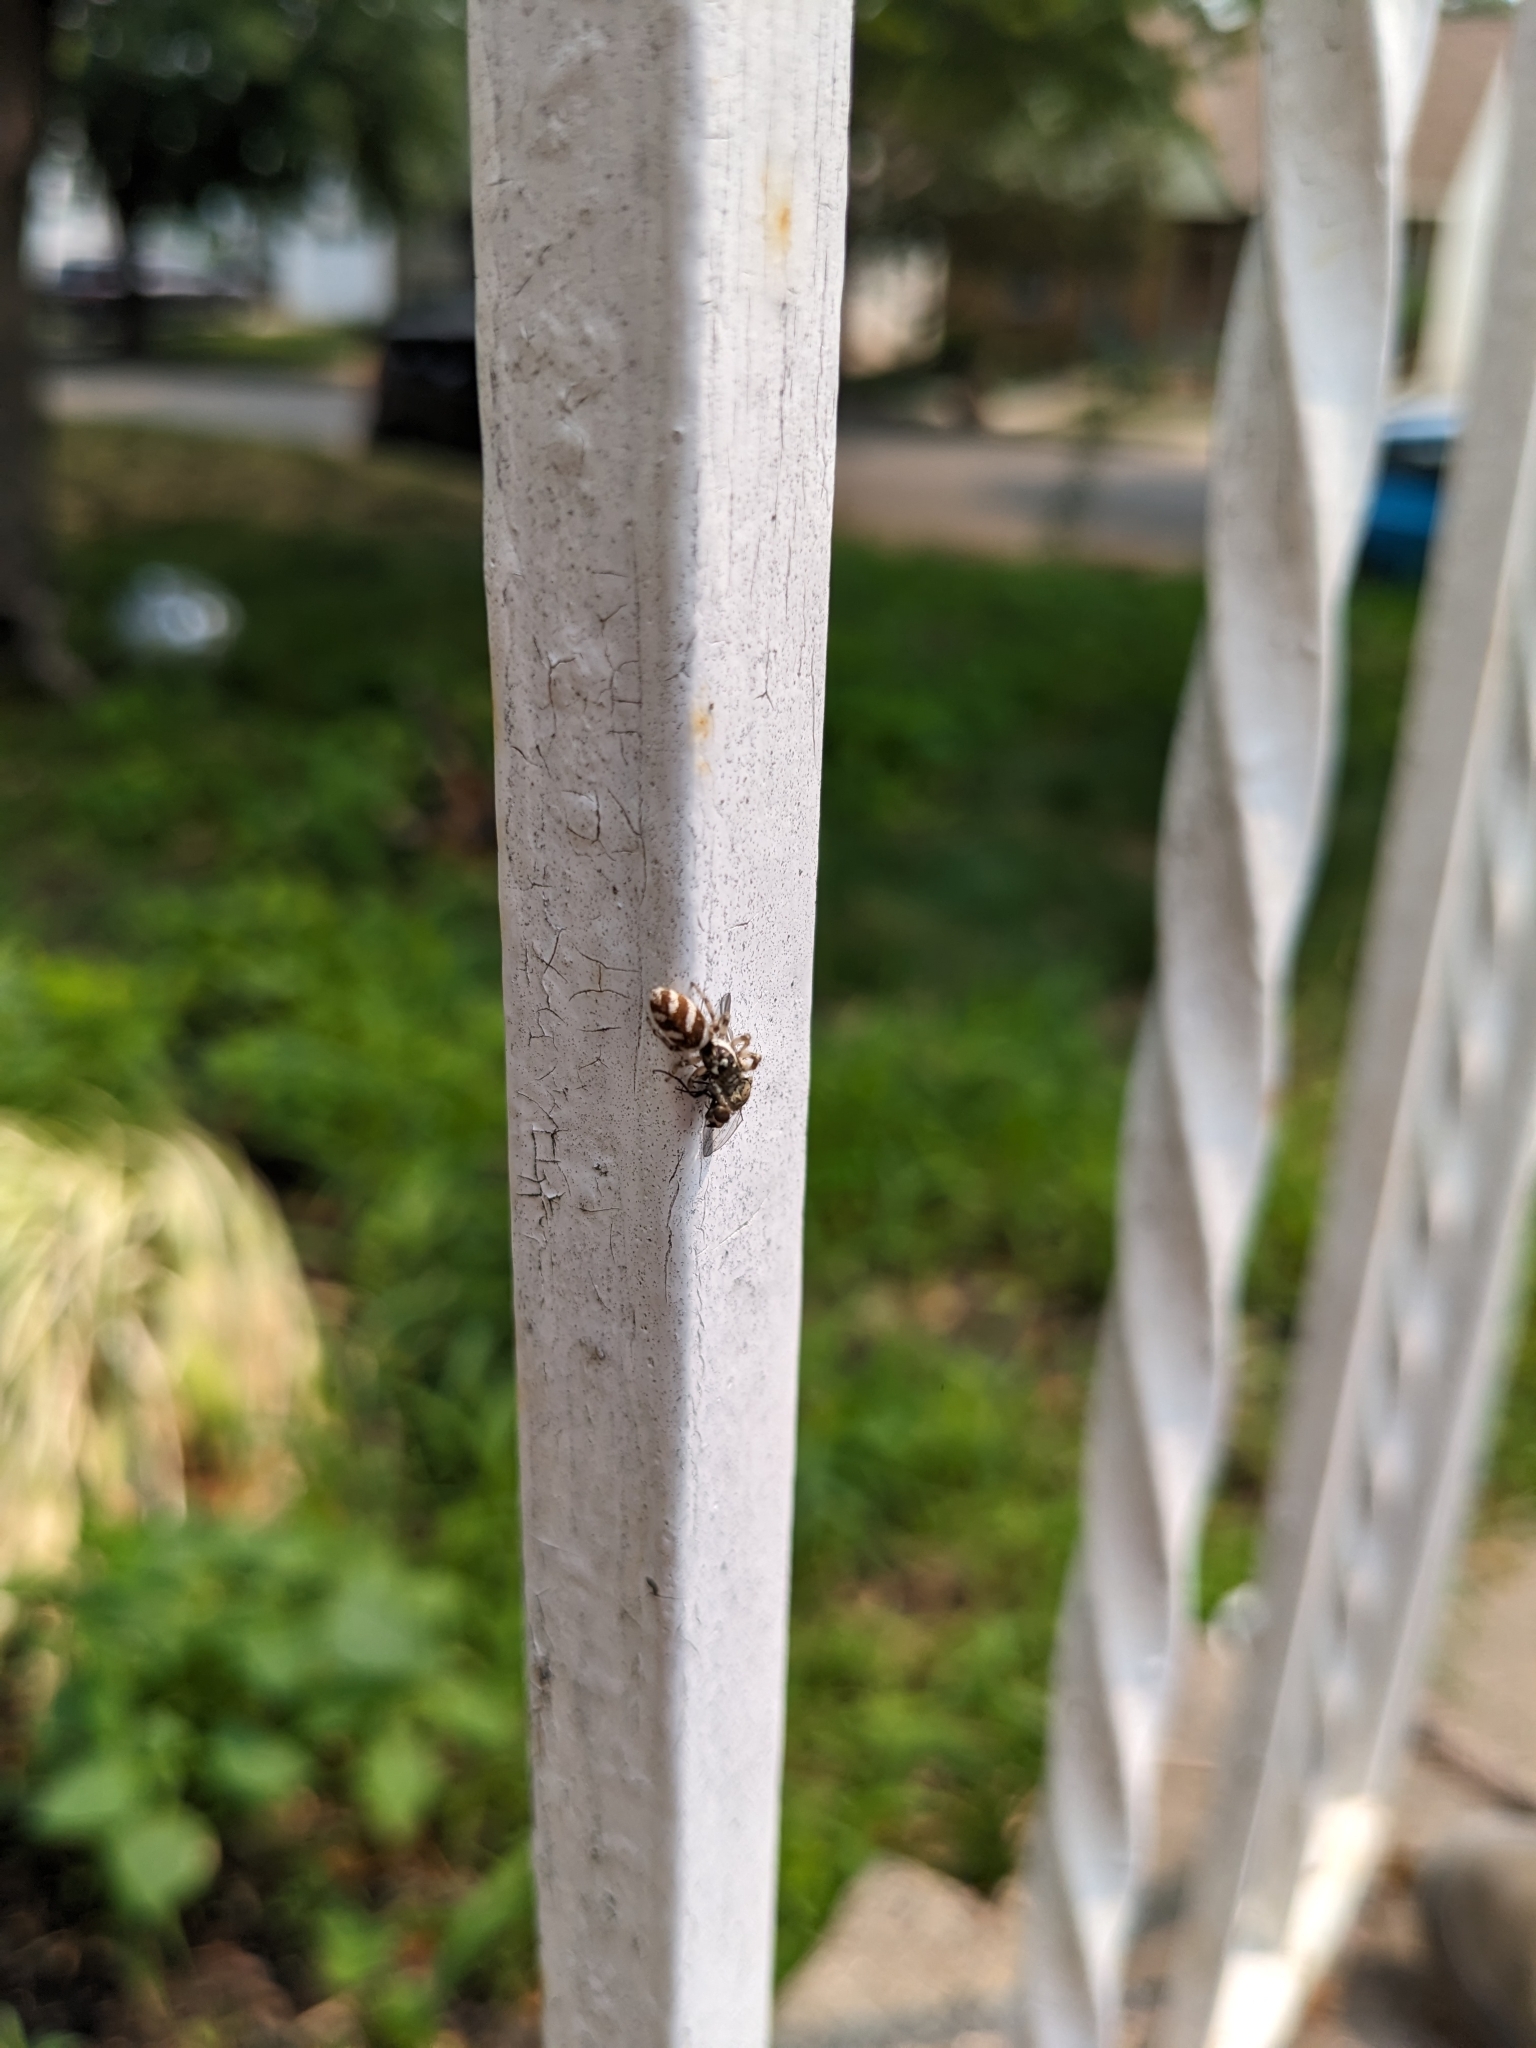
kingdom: Animalia
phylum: Arthropoda
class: Arachnida
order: Araneae
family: Salticidae
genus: Salticus
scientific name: Salticus scenicus
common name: Zebra jumper
